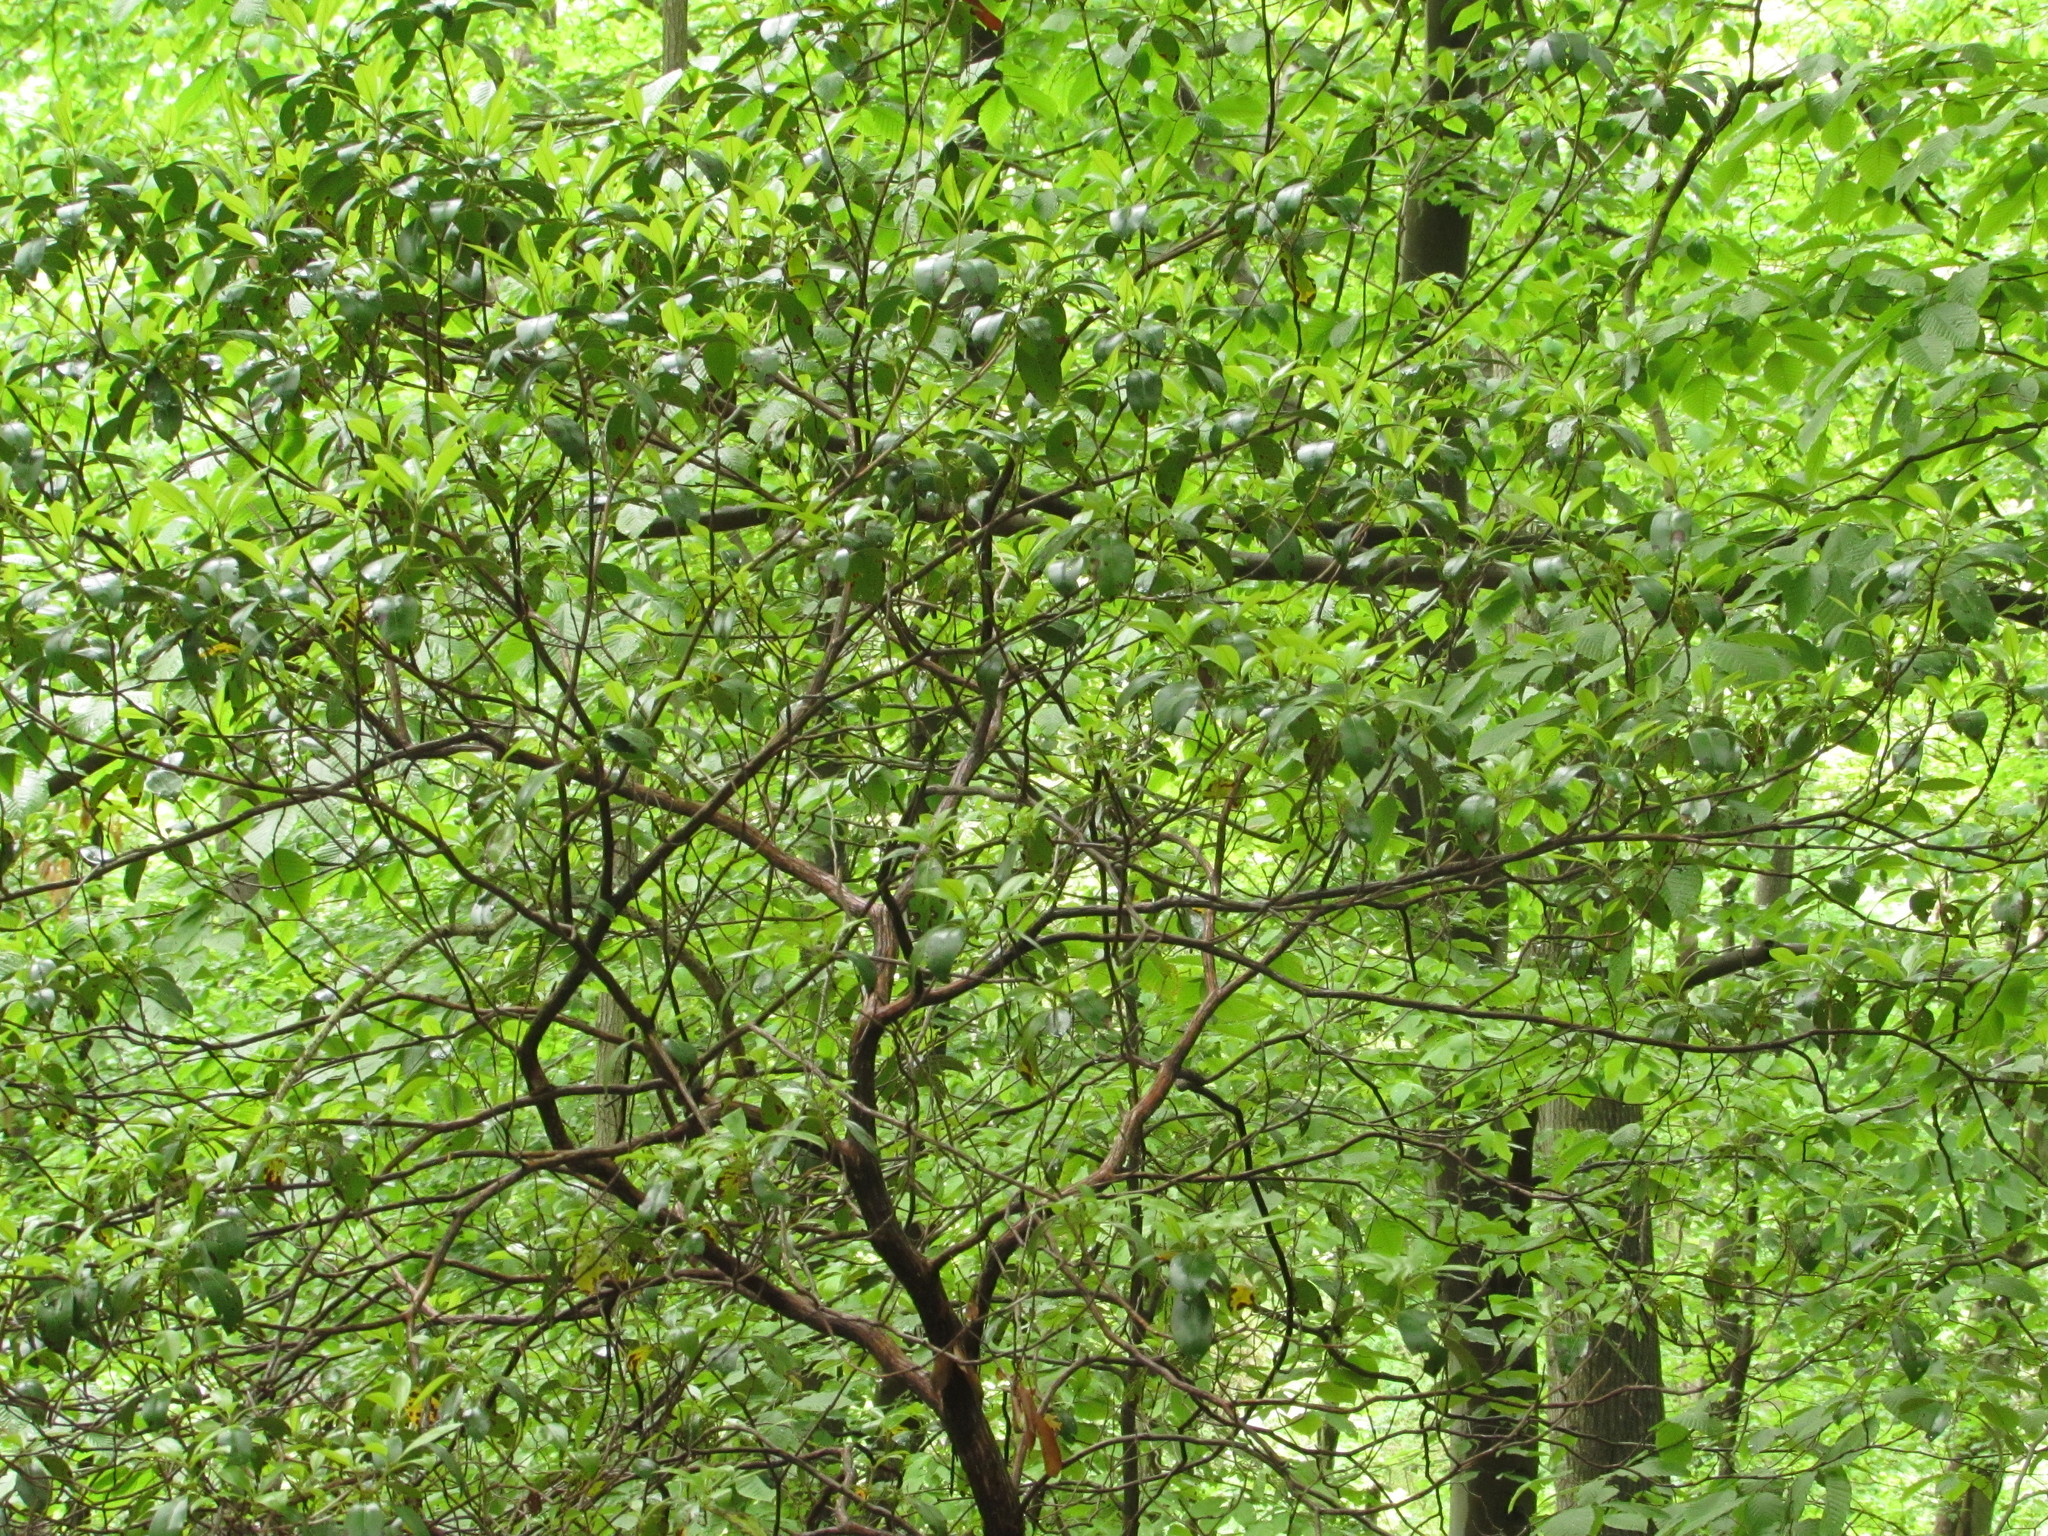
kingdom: Plantae
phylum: Tracheophyta
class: Magnoliopsida
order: Ericales
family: Ericaceae
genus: Kalmia
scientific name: Kalmia latifolia
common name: Mountain-laurel
